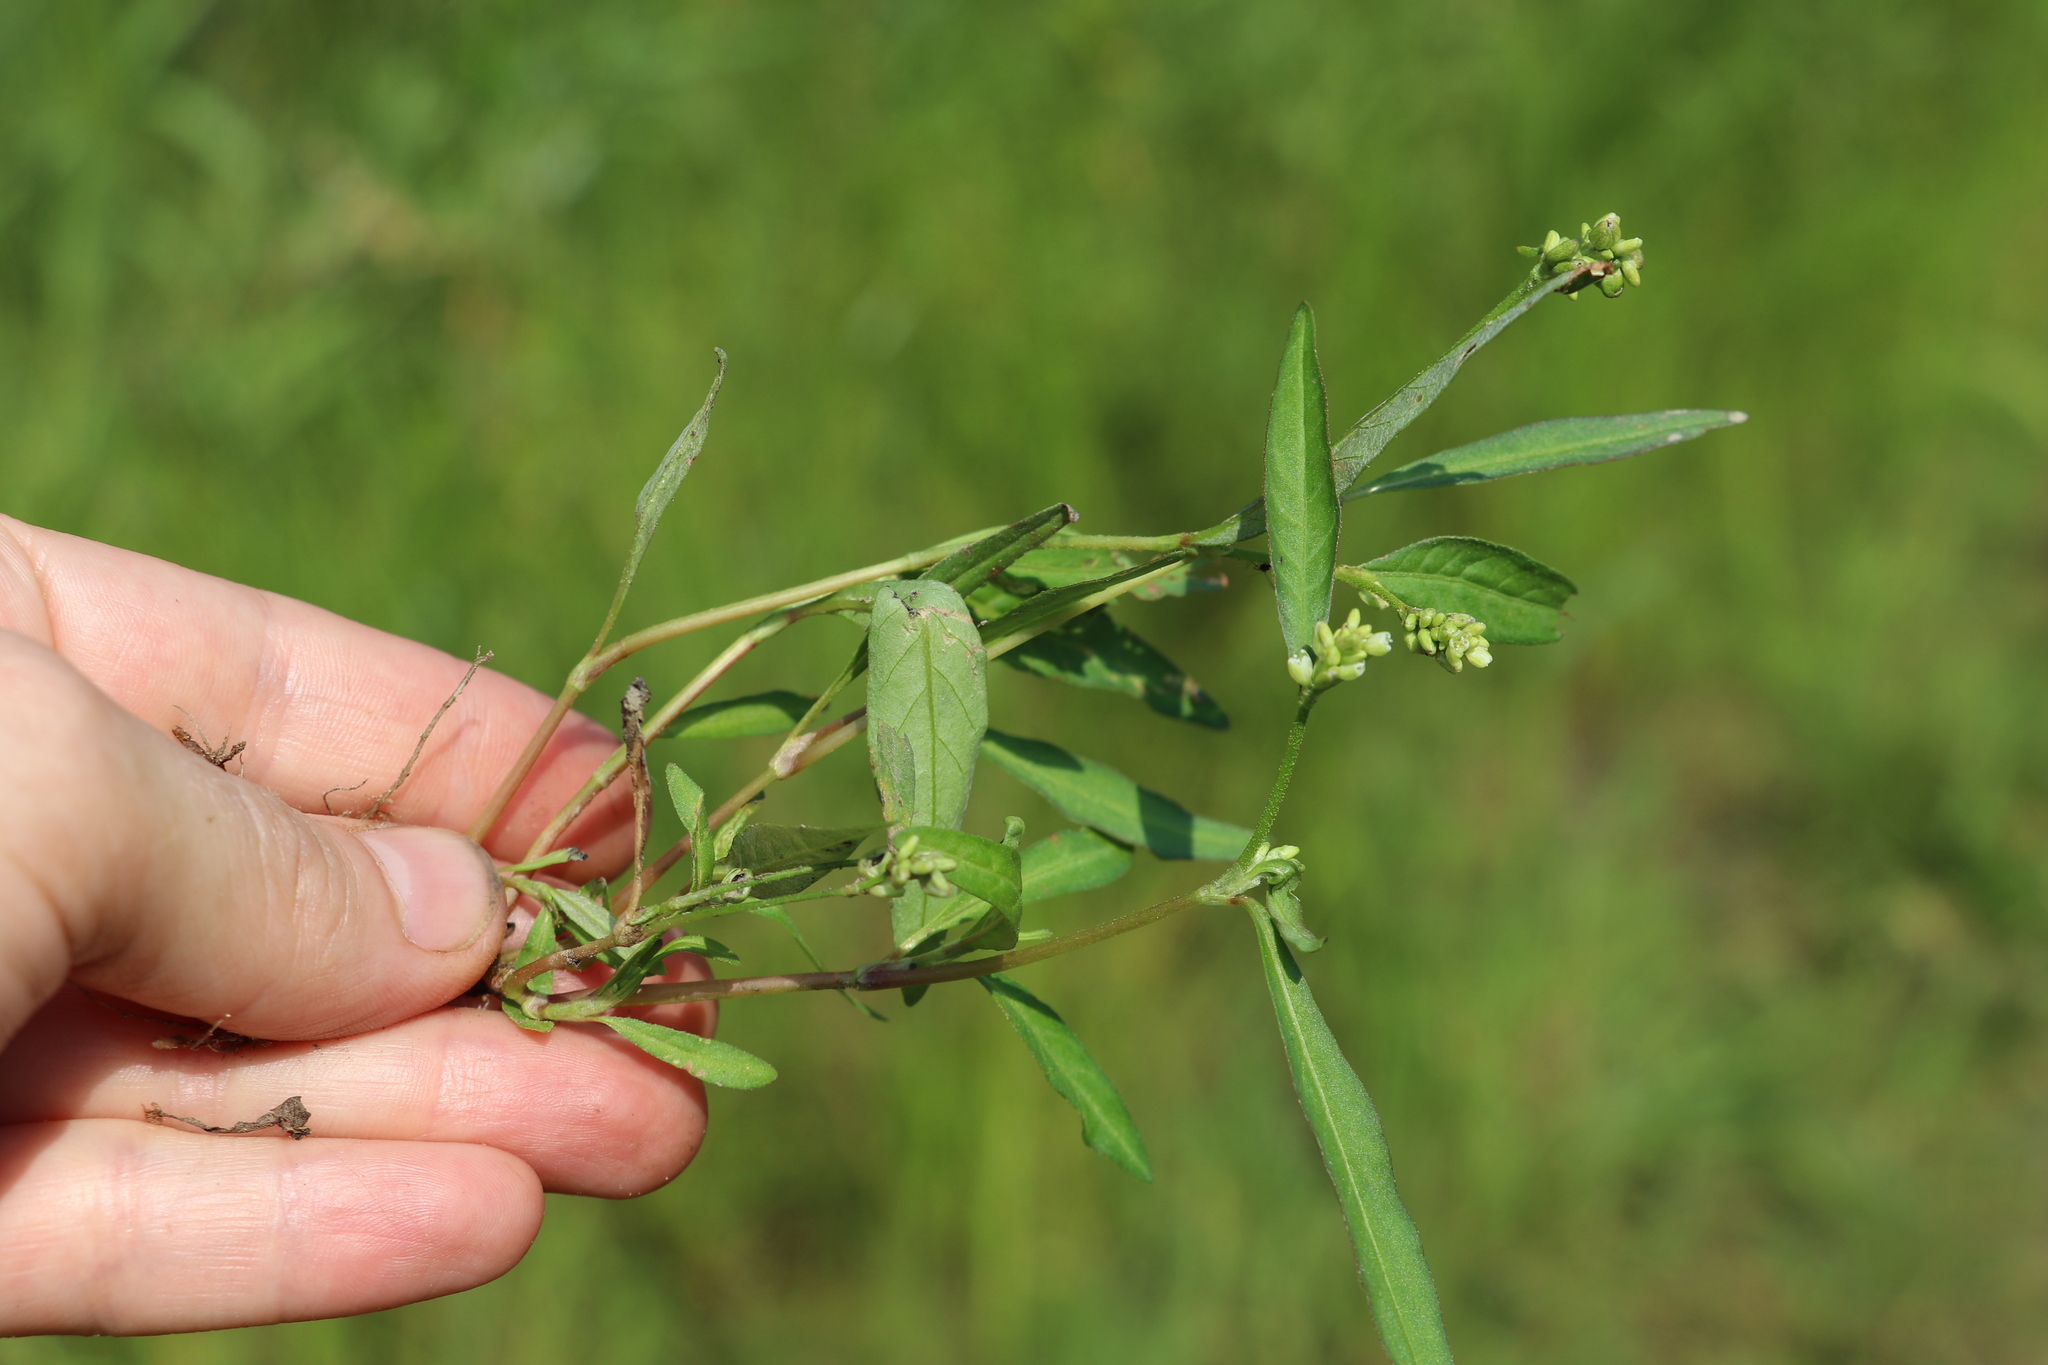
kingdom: Plantae
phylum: Tracheophyta
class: Magnoliopsida
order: Caryophyllales
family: Polygonaceae
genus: Persicaria
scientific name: Persicaria lapathifolia
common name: Curlytop knotweed
